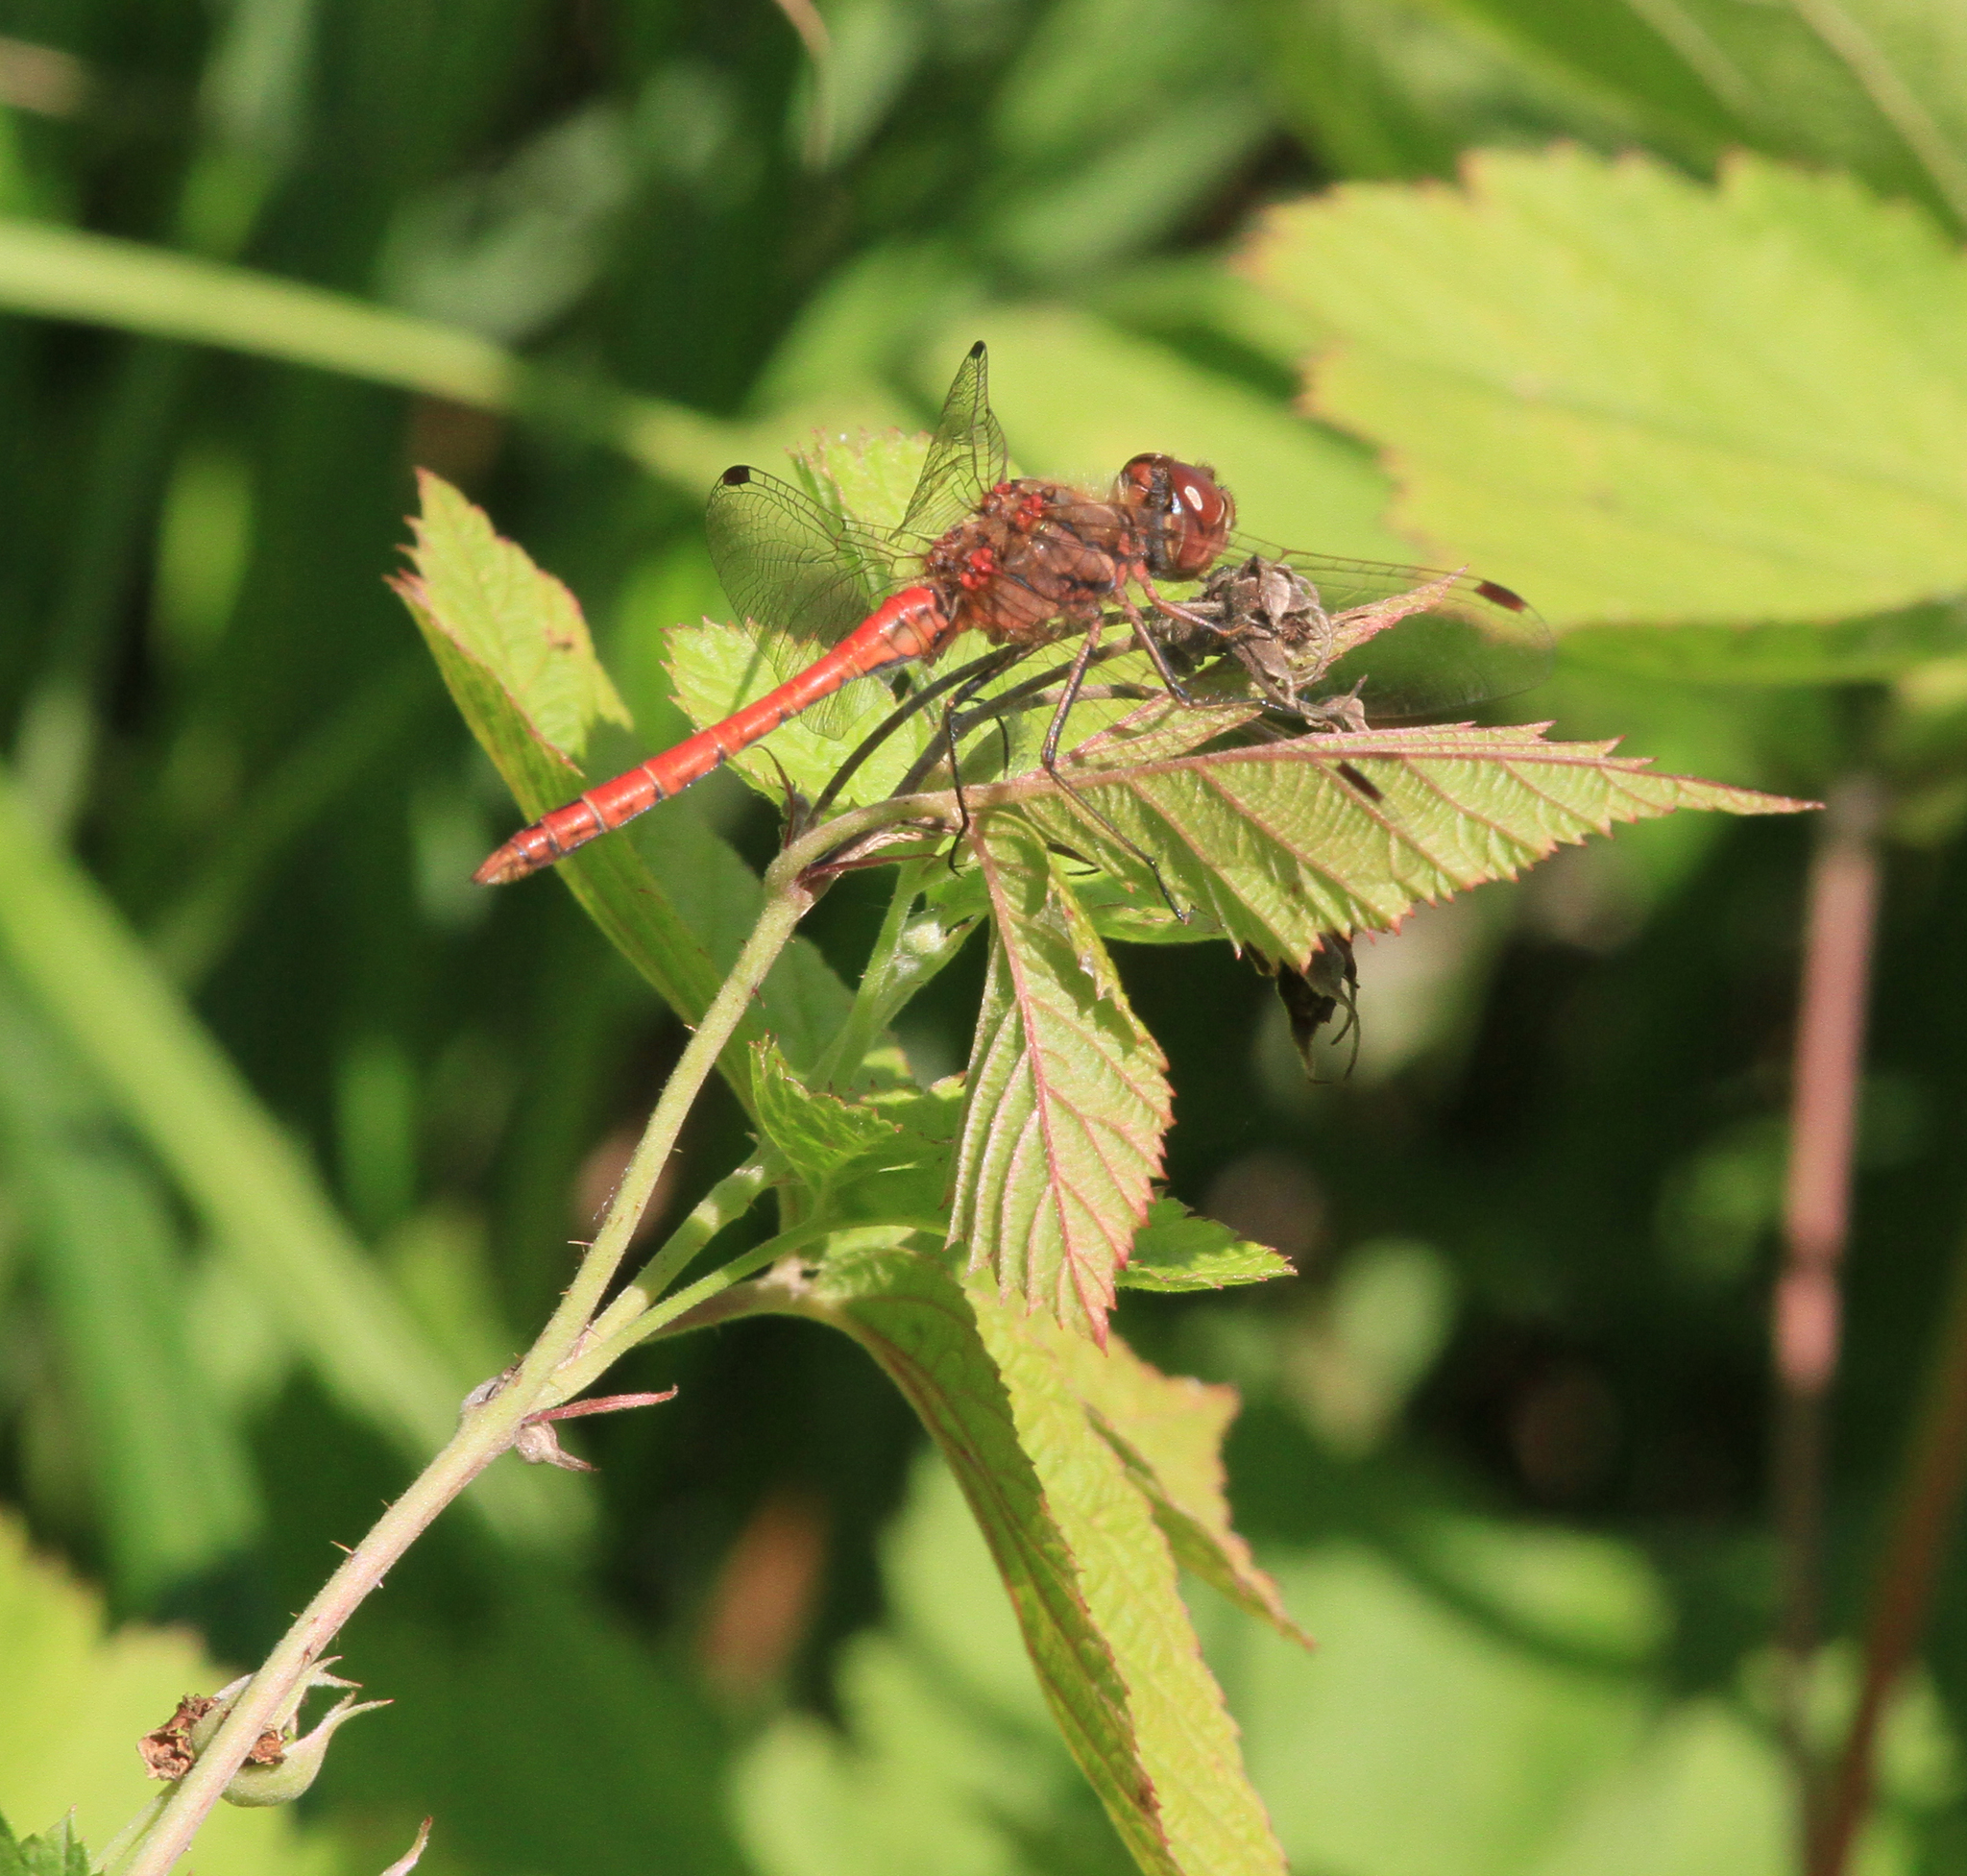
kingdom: Animalia
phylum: Arthropoda
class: Insecta
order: Odonata
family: Libellulidae
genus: Sympetrum
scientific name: Sympetrum vulgatum
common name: Vagrant darter
